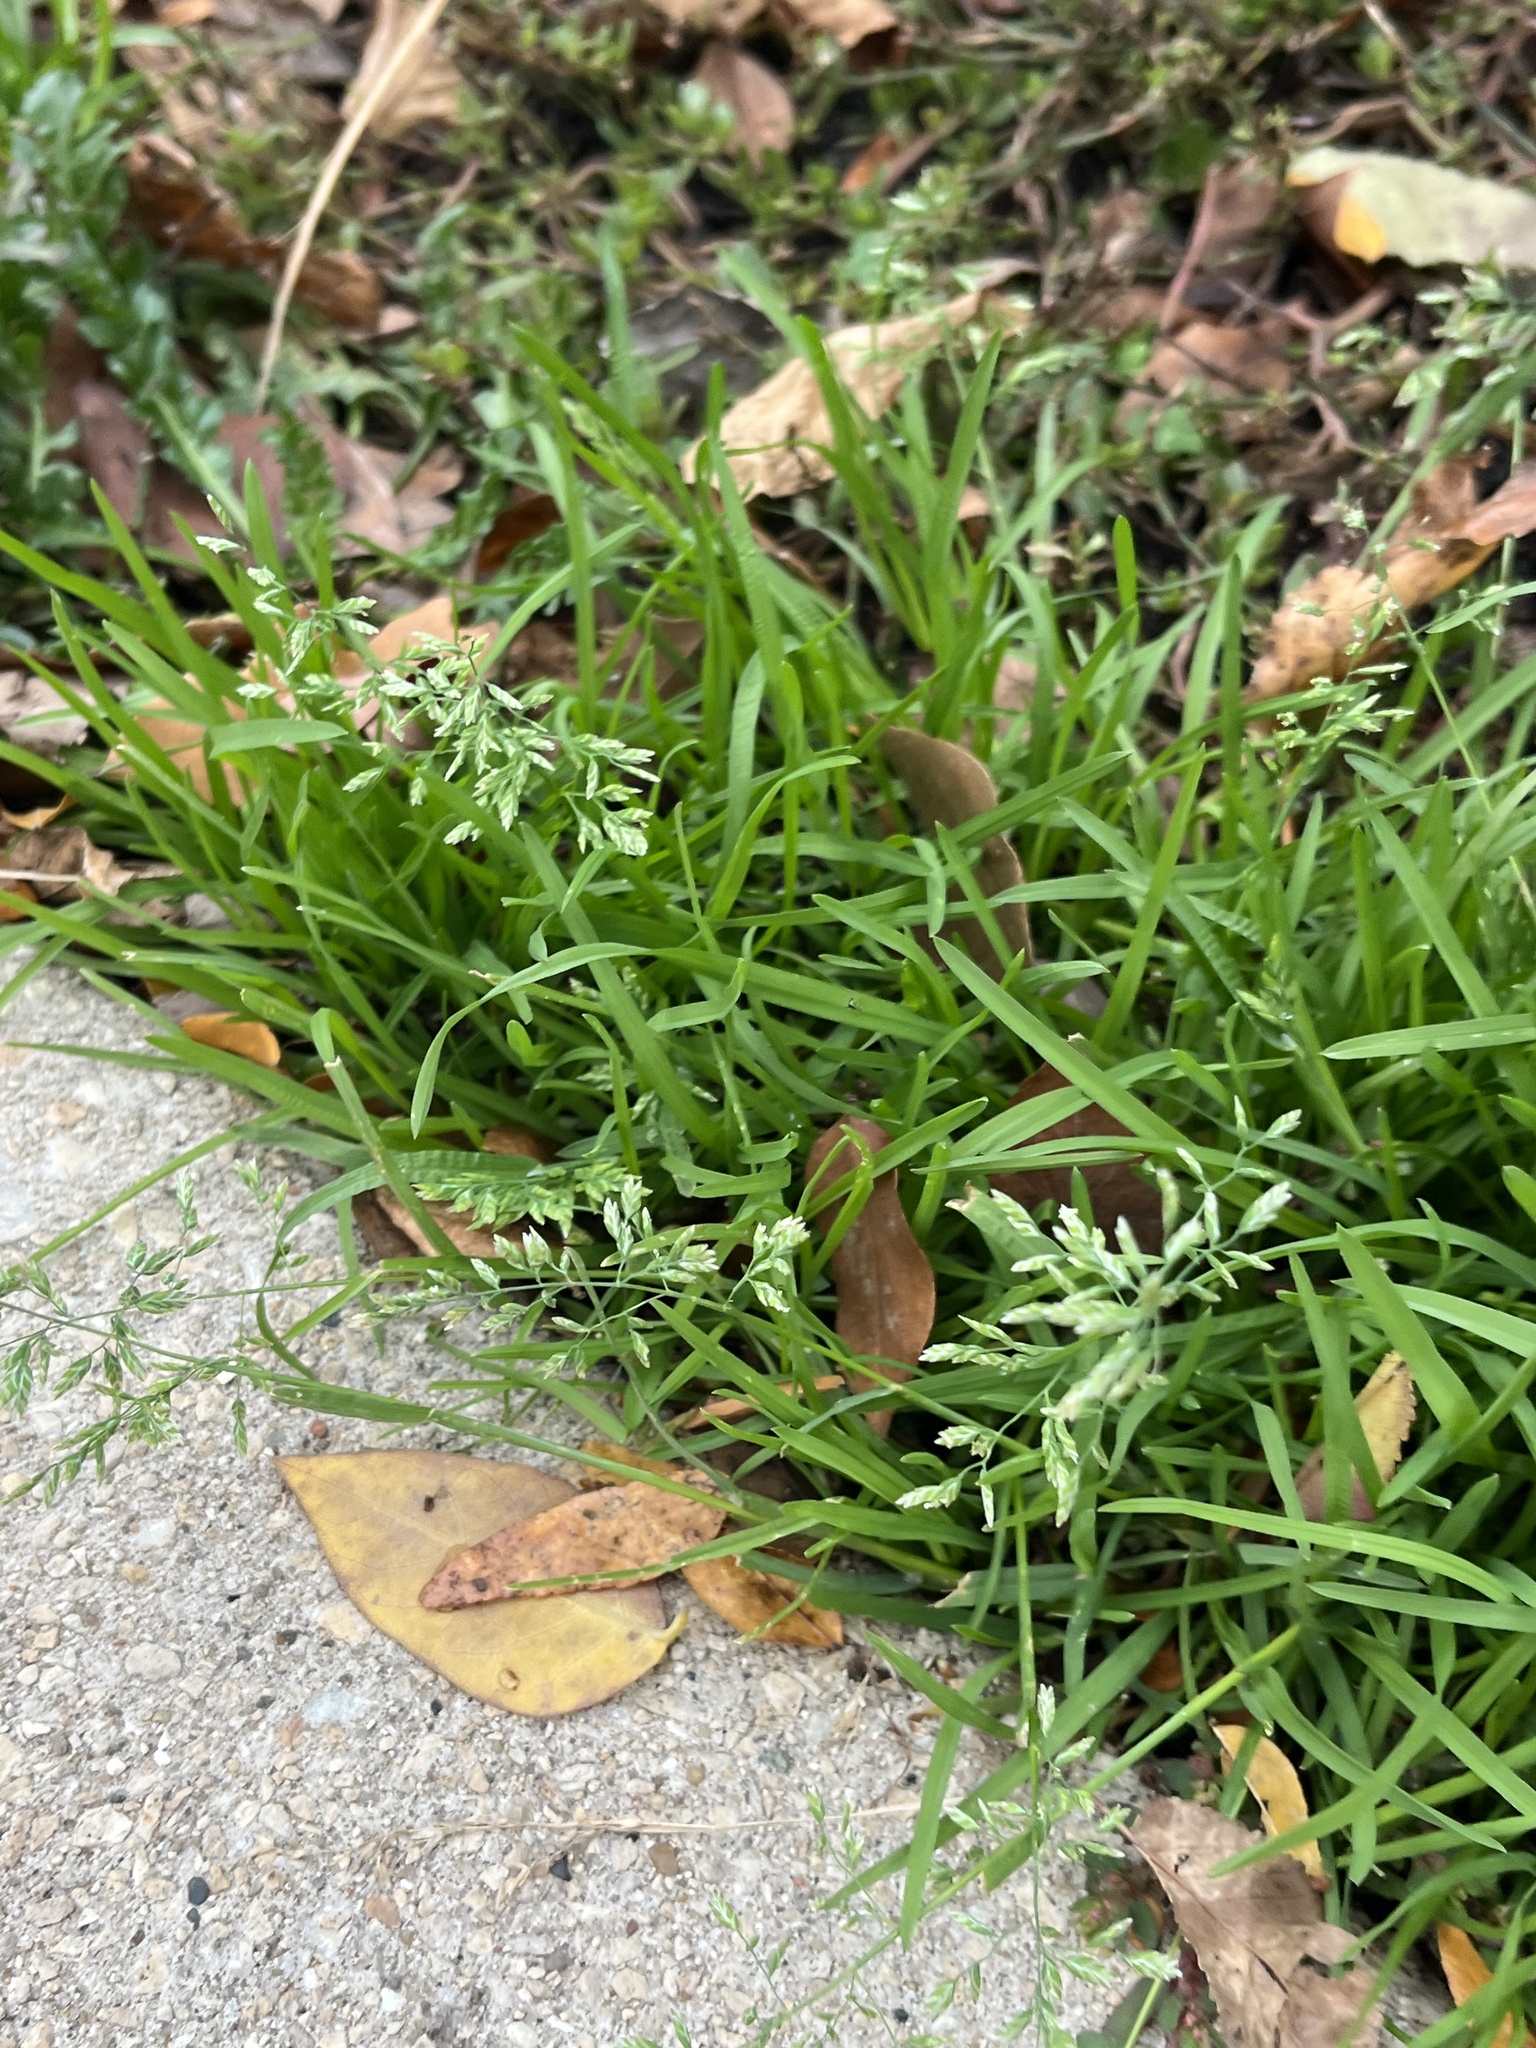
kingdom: Plantae
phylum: Tracheophyta
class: Liliopsida
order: Poales
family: Poaceae
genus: Poa
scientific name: Poa annua
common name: Annual bluegrass
